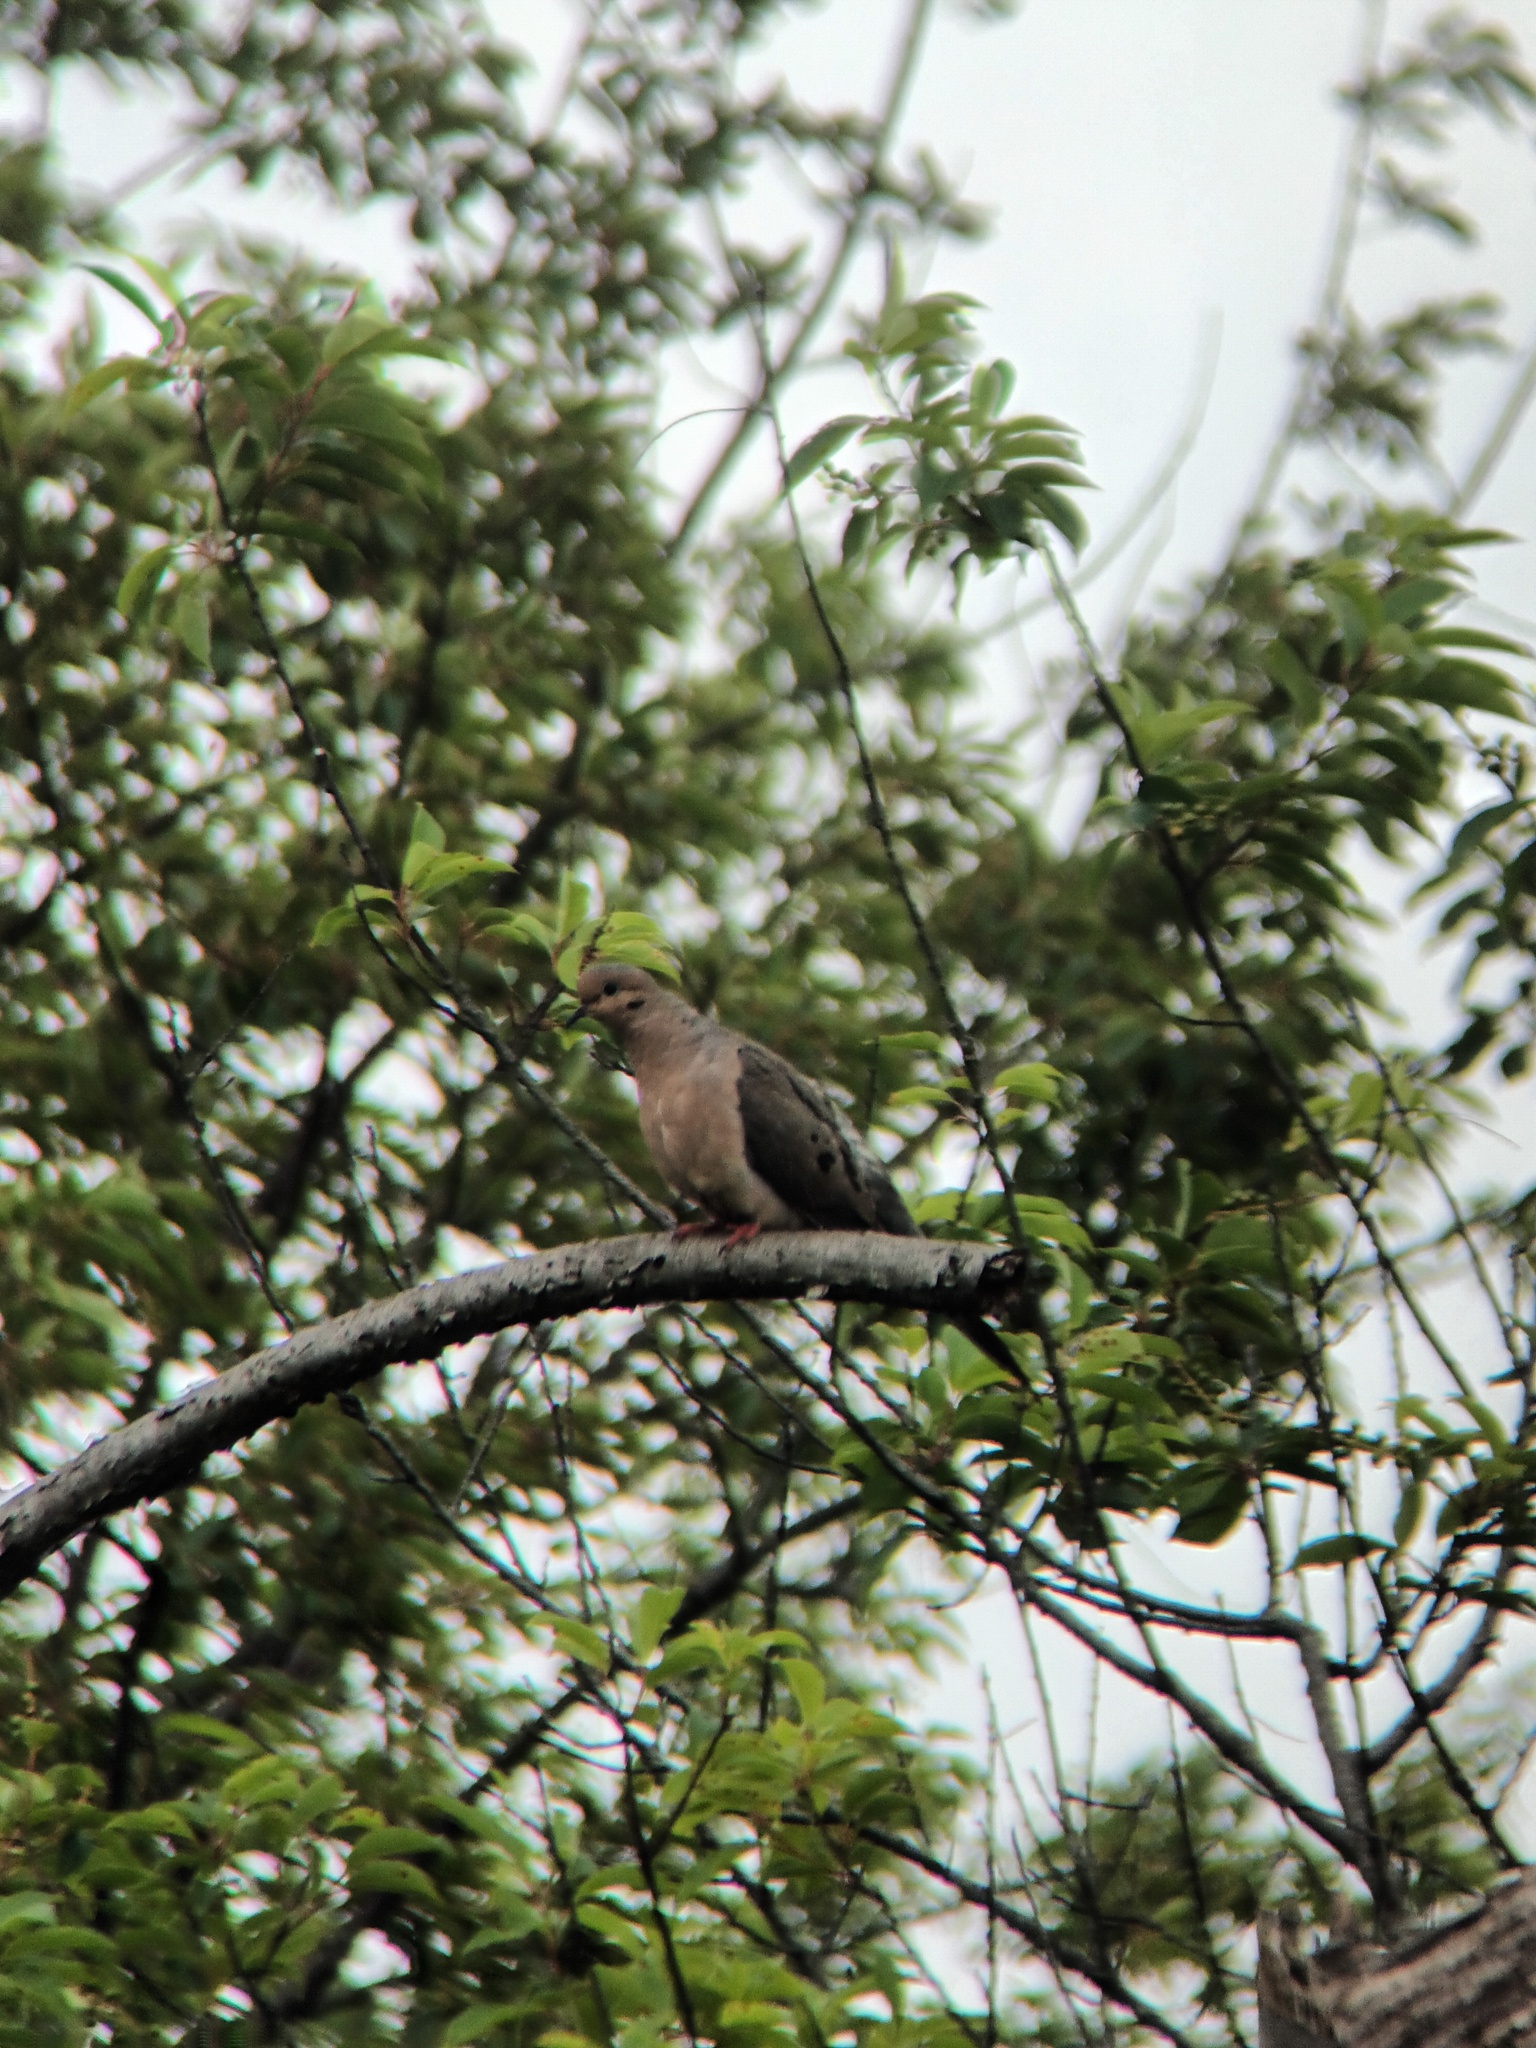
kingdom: Animalia
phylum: Chordata
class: Aves
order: Columbiformes
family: Columbidae
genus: Zenaida
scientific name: Zenaida macroura
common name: Mourning dove
